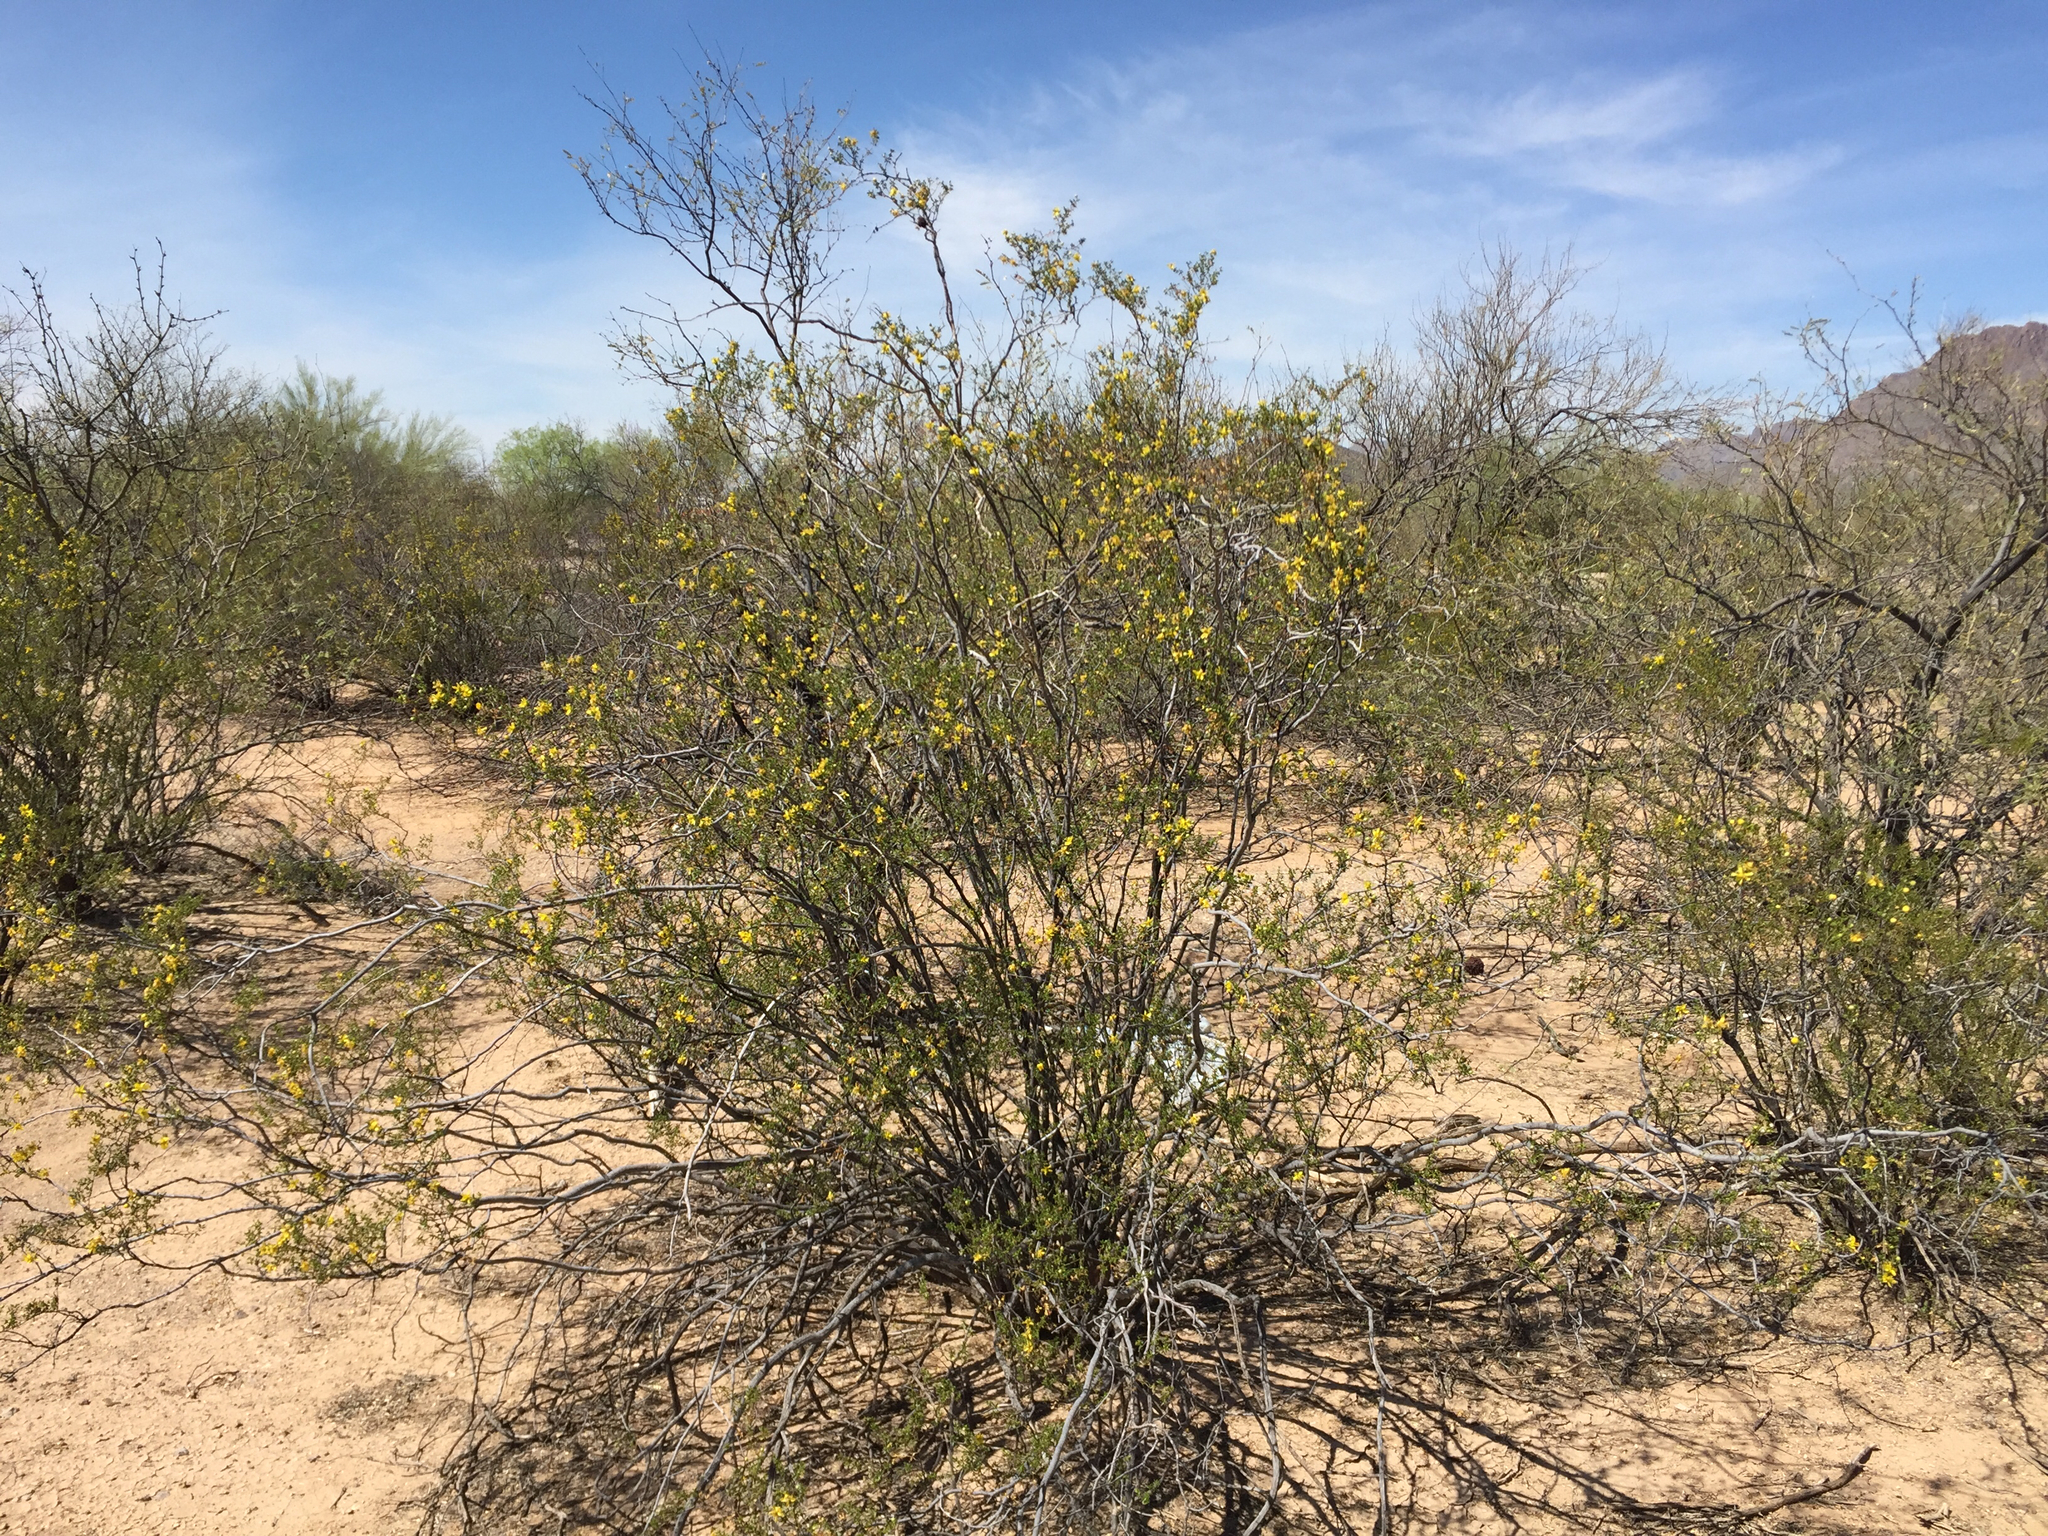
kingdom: Plantae
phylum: Tracheophyta
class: Magnoliopsida
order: Zygophyllales
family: Zygophyllaceae
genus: Larrea
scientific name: Larrea tridentata
